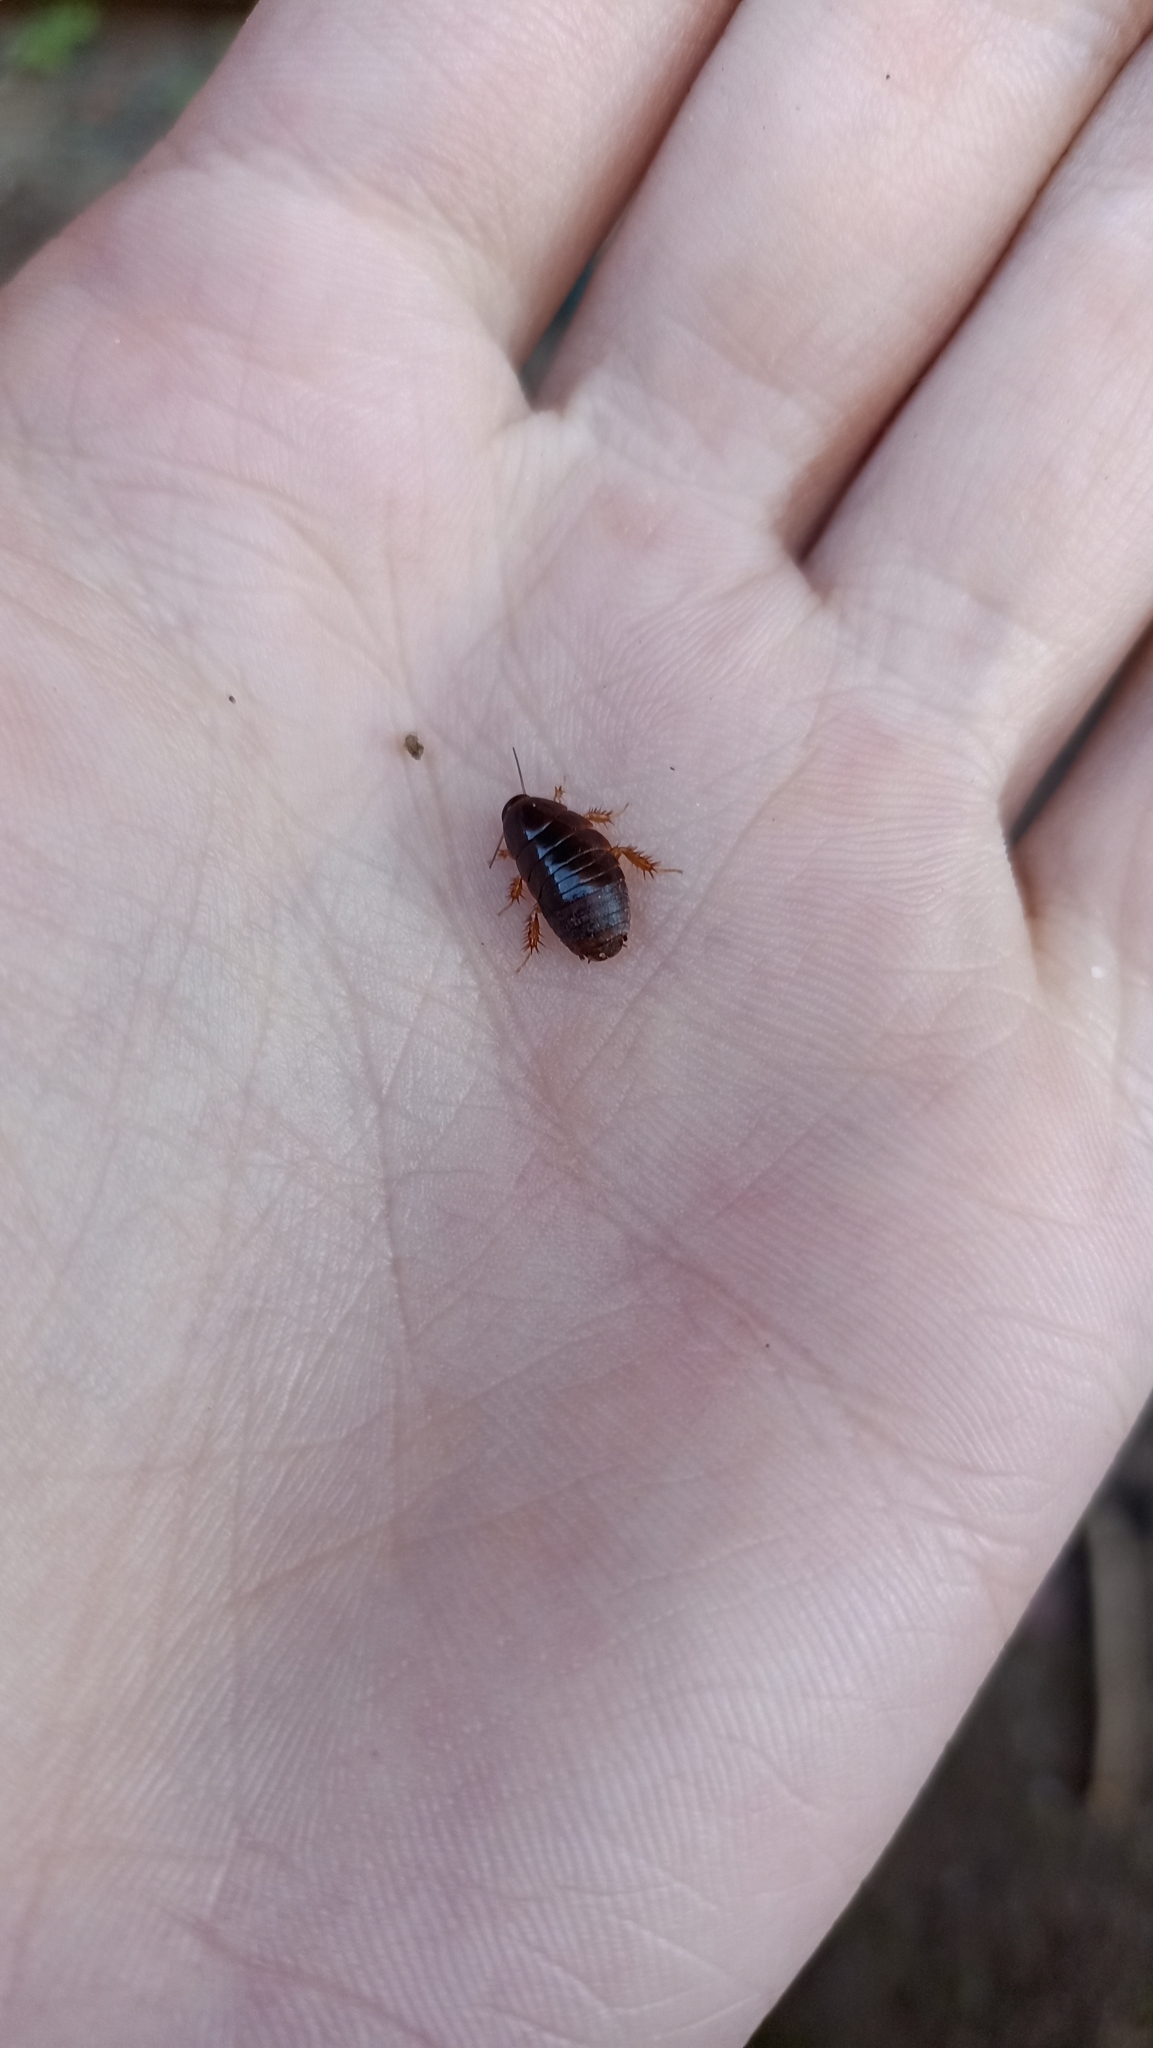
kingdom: Animalia
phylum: Arthropoda
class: Insecta
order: Blattodea
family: Blaberidae
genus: Pycnoscelus
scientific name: Pycnoscelus surinamensis
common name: Surinam cockroach
